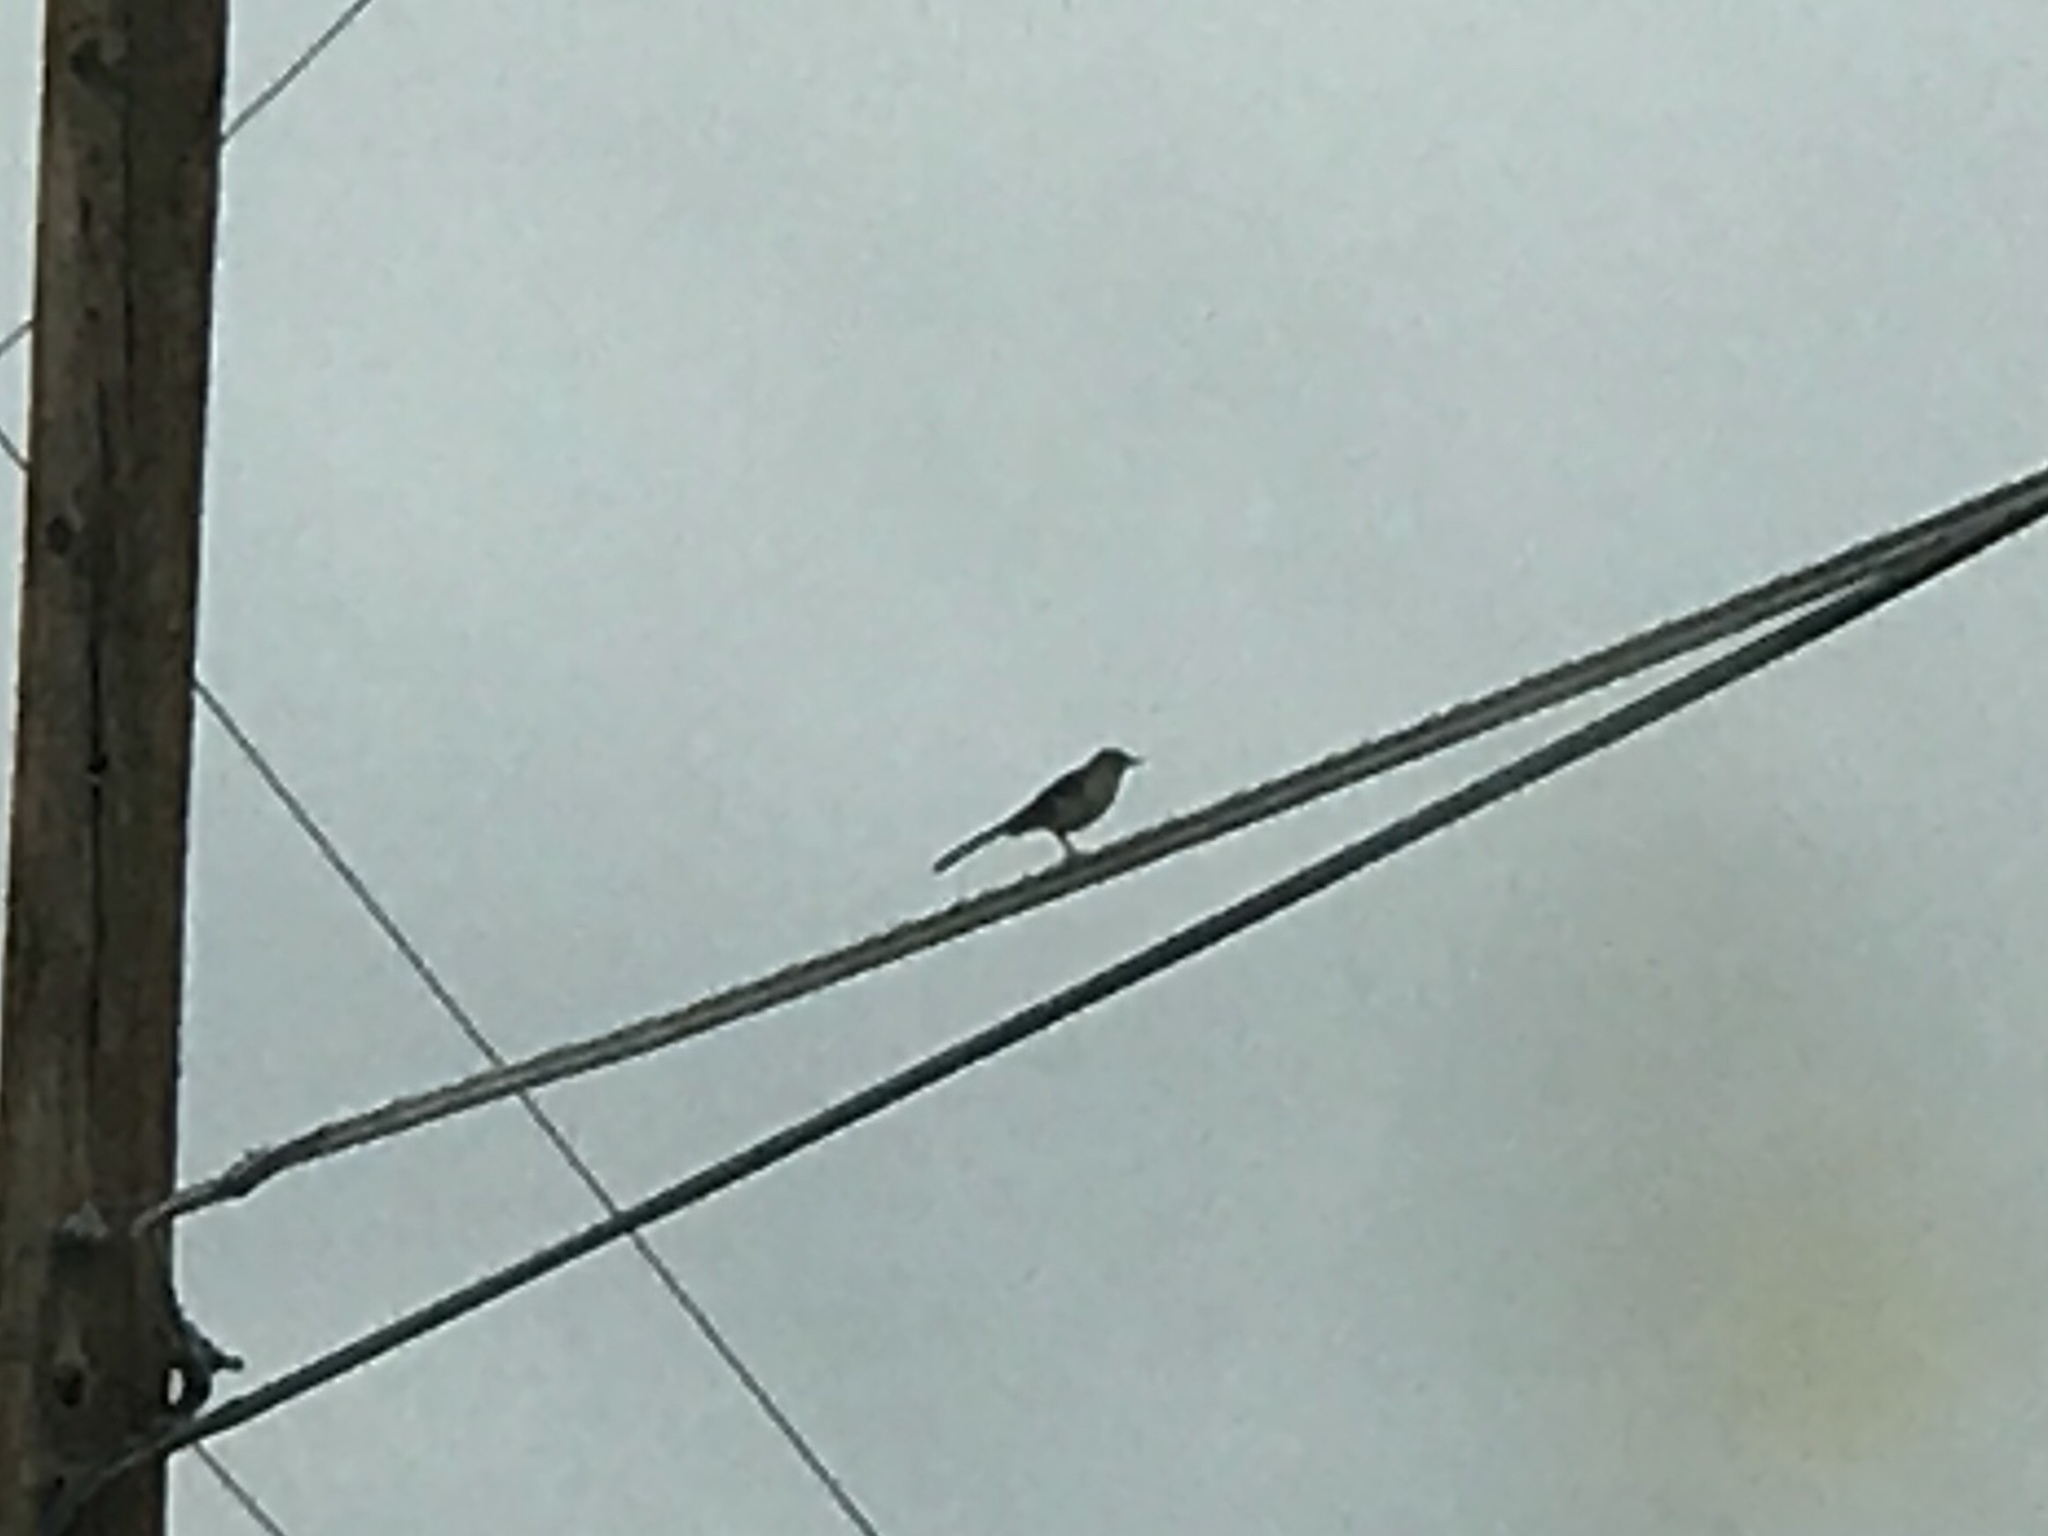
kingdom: Animalia
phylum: Chordata
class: Aves
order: Passeriformes
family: Mimidae
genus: Mimus
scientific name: Mimus polyglottos
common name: Northern mockingbird
